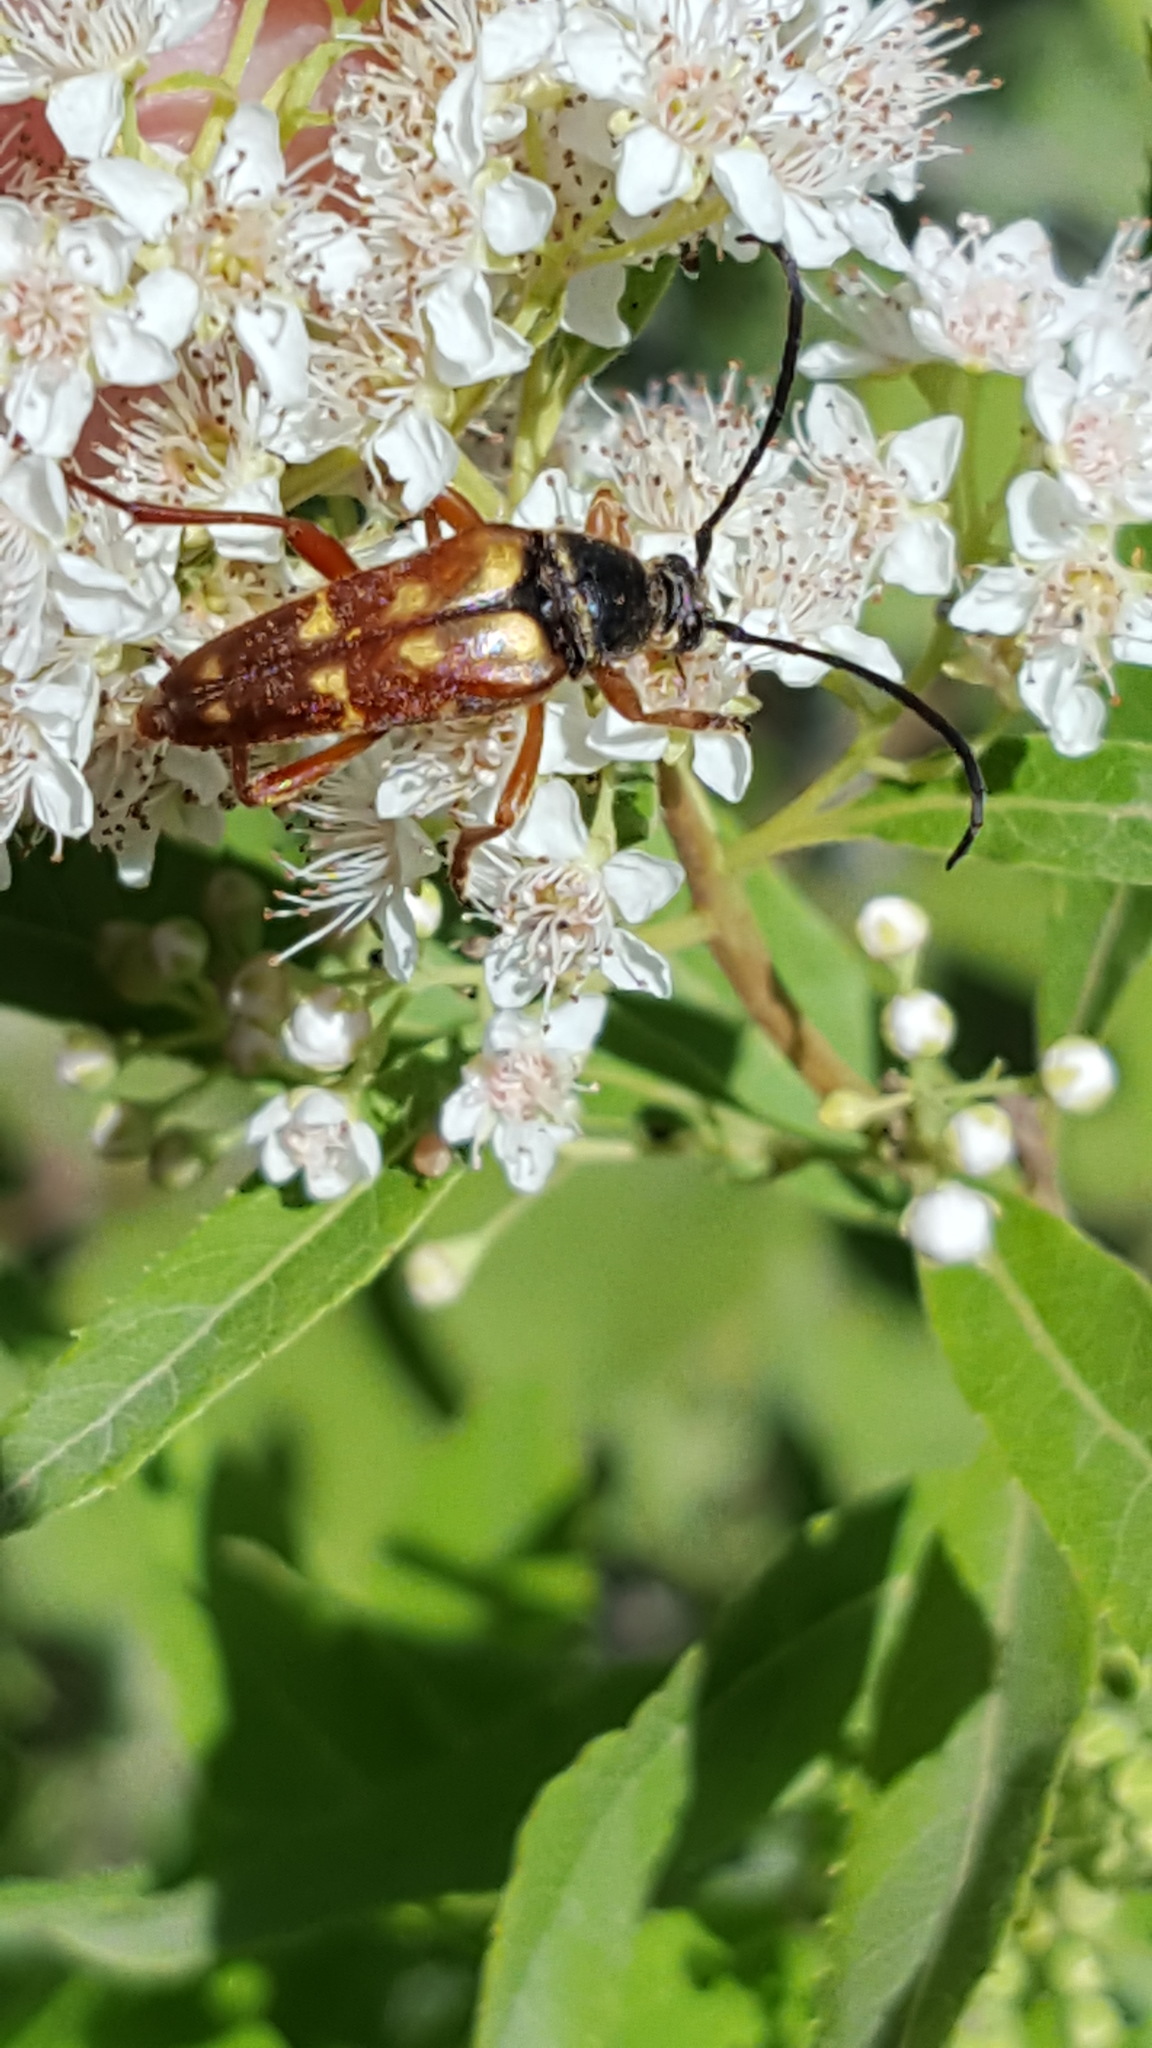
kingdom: Animalia
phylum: Arthropoda
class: Insecta
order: Coleoptera
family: Cerambycidae
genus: Typocerus
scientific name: Typocerus velutinus
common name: Banded longhorn beetle
